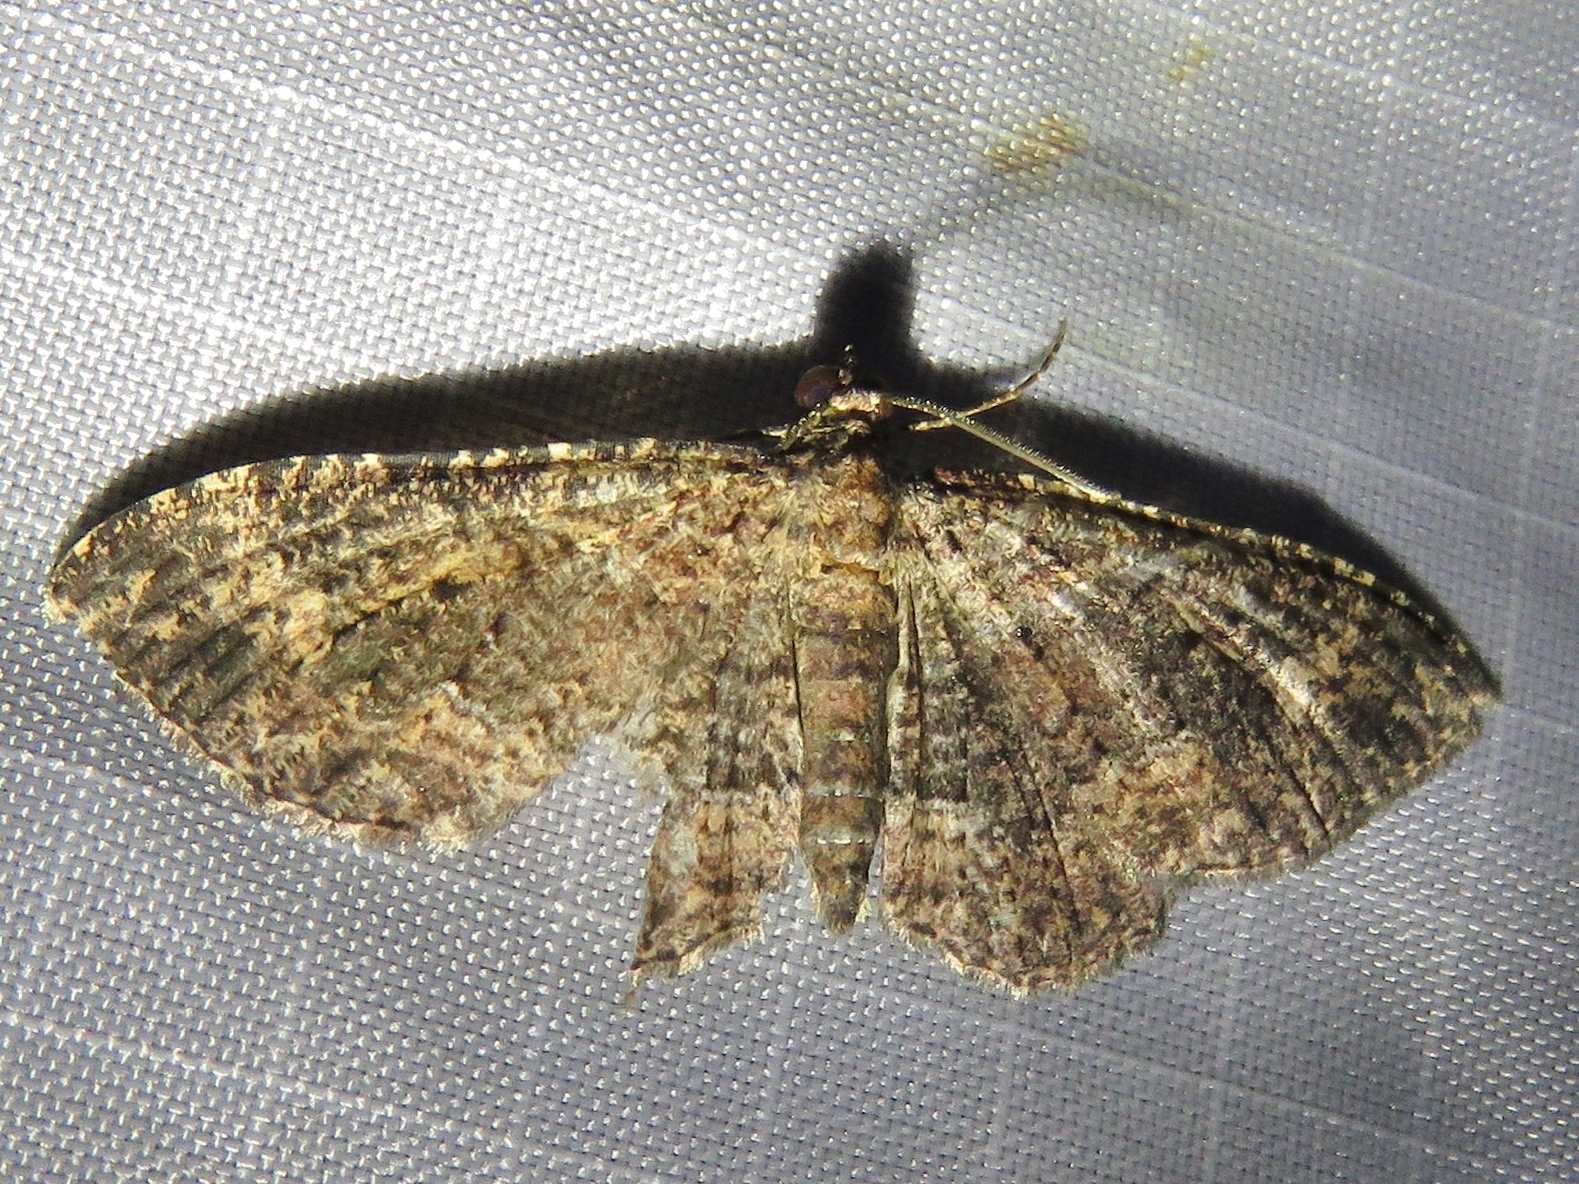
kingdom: Animalia
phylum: Arthropoda
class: Insecta
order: Lepidoptera
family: Geometridae
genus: Disclisioprocta
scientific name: Disclisioprocta stellata
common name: Somber carpet
